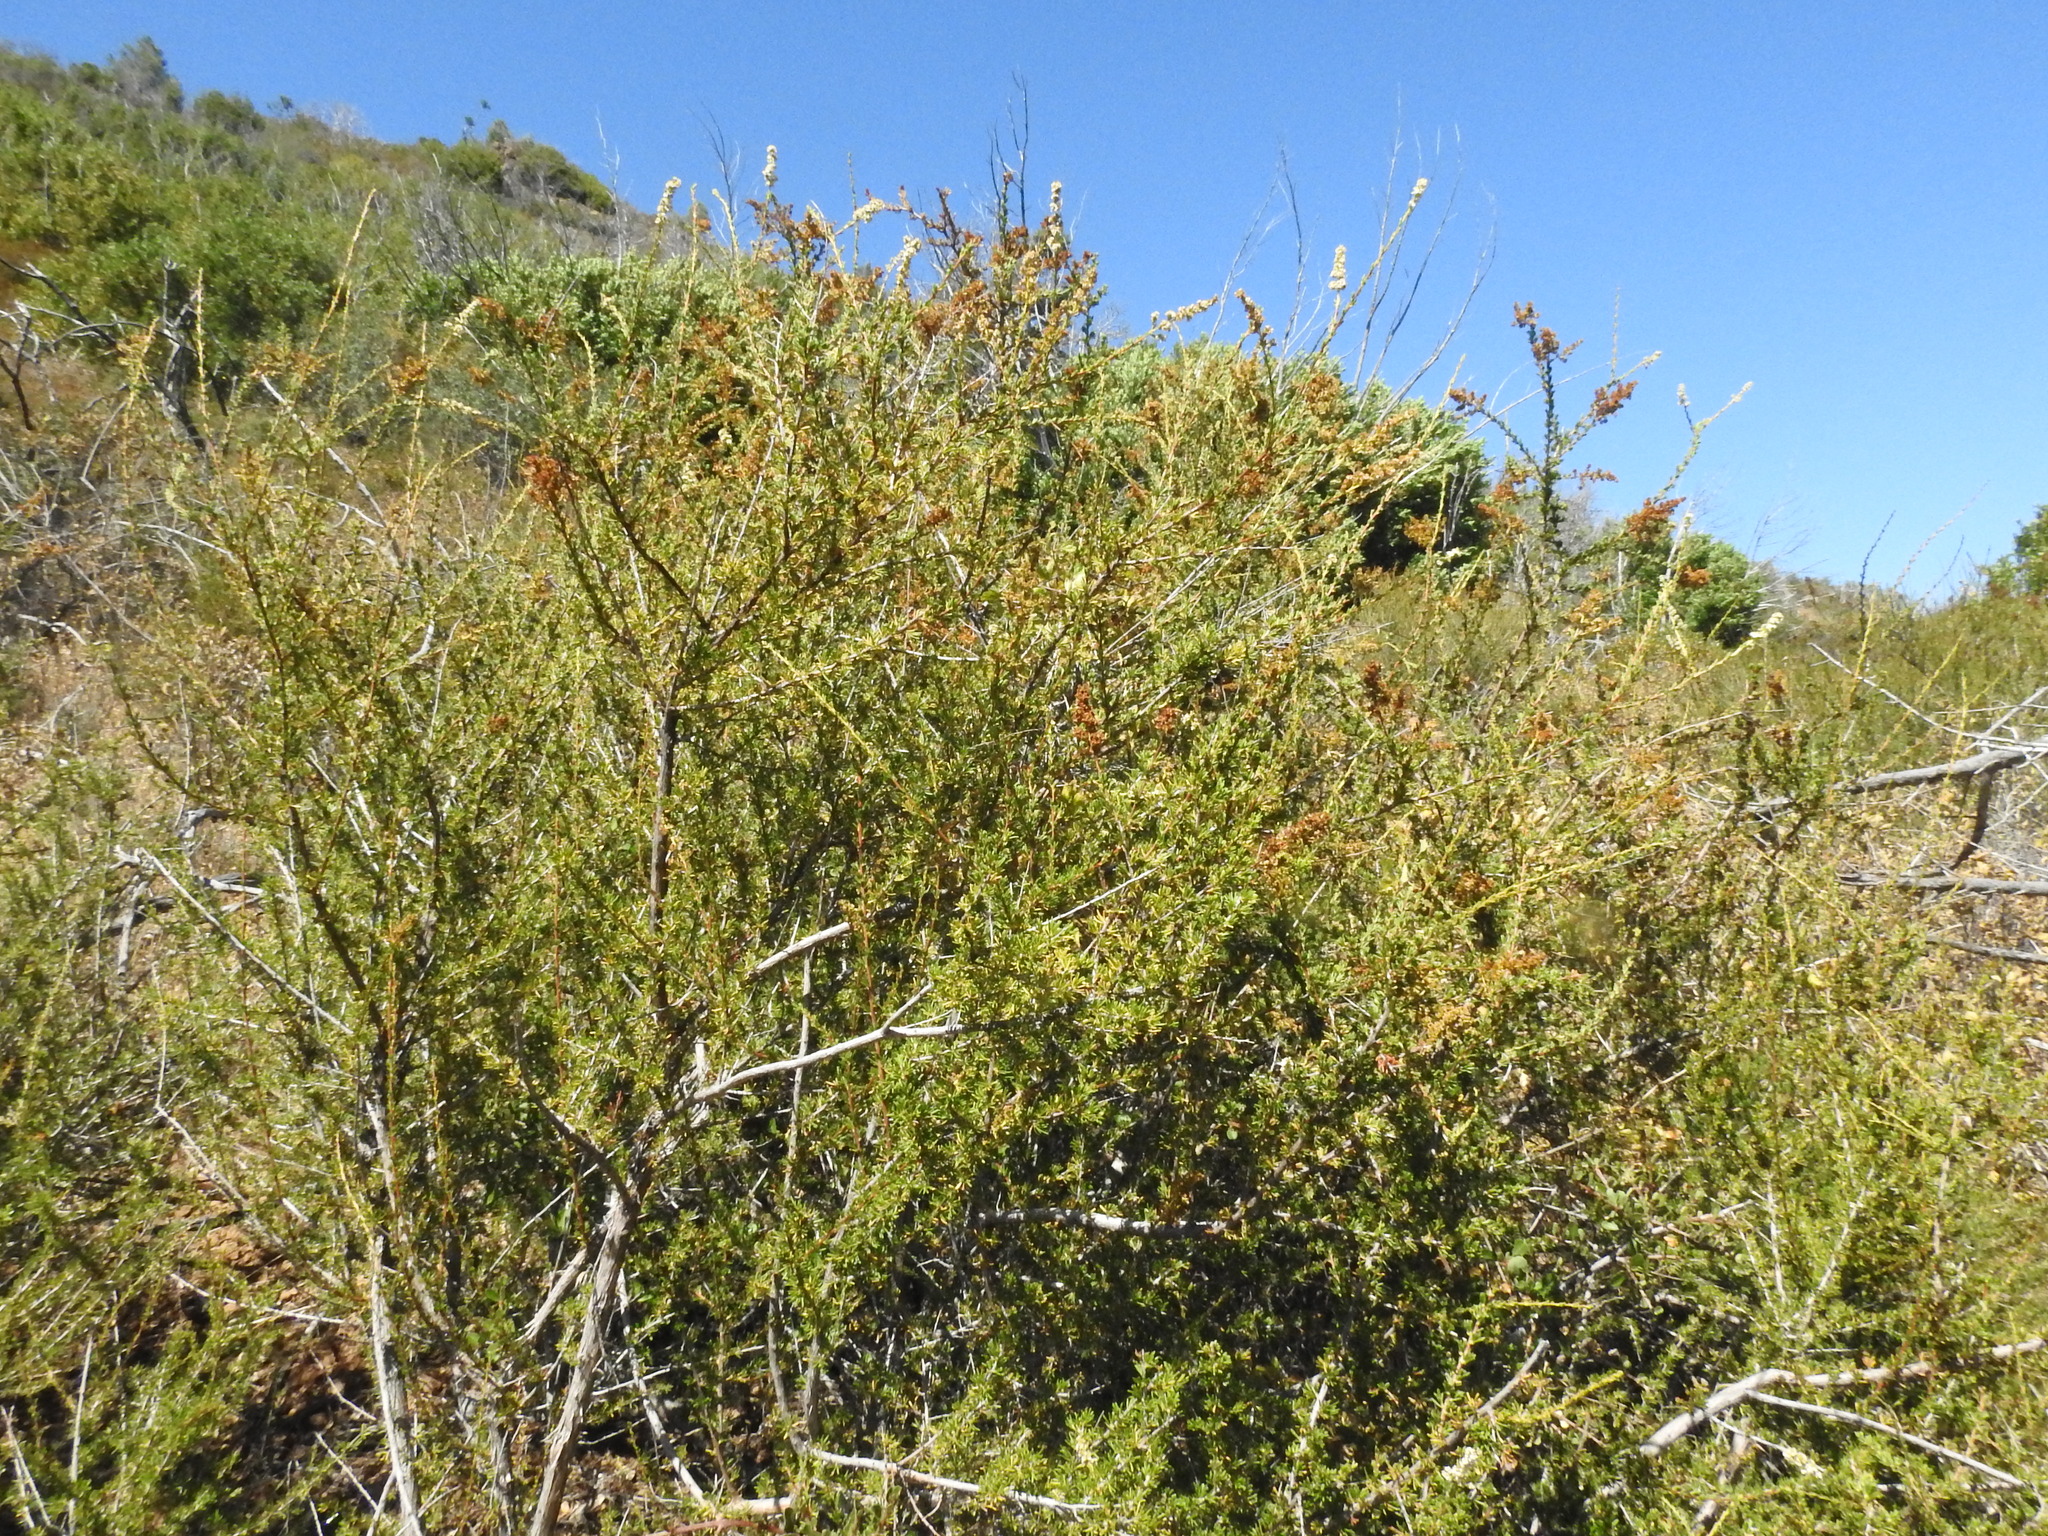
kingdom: Plantae
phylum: Tracheophyta
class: Magnoliopsida
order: Rosales
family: Rosaceae
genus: Adenostoma
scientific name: Adenostoma fasciculatum
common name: Chamise
